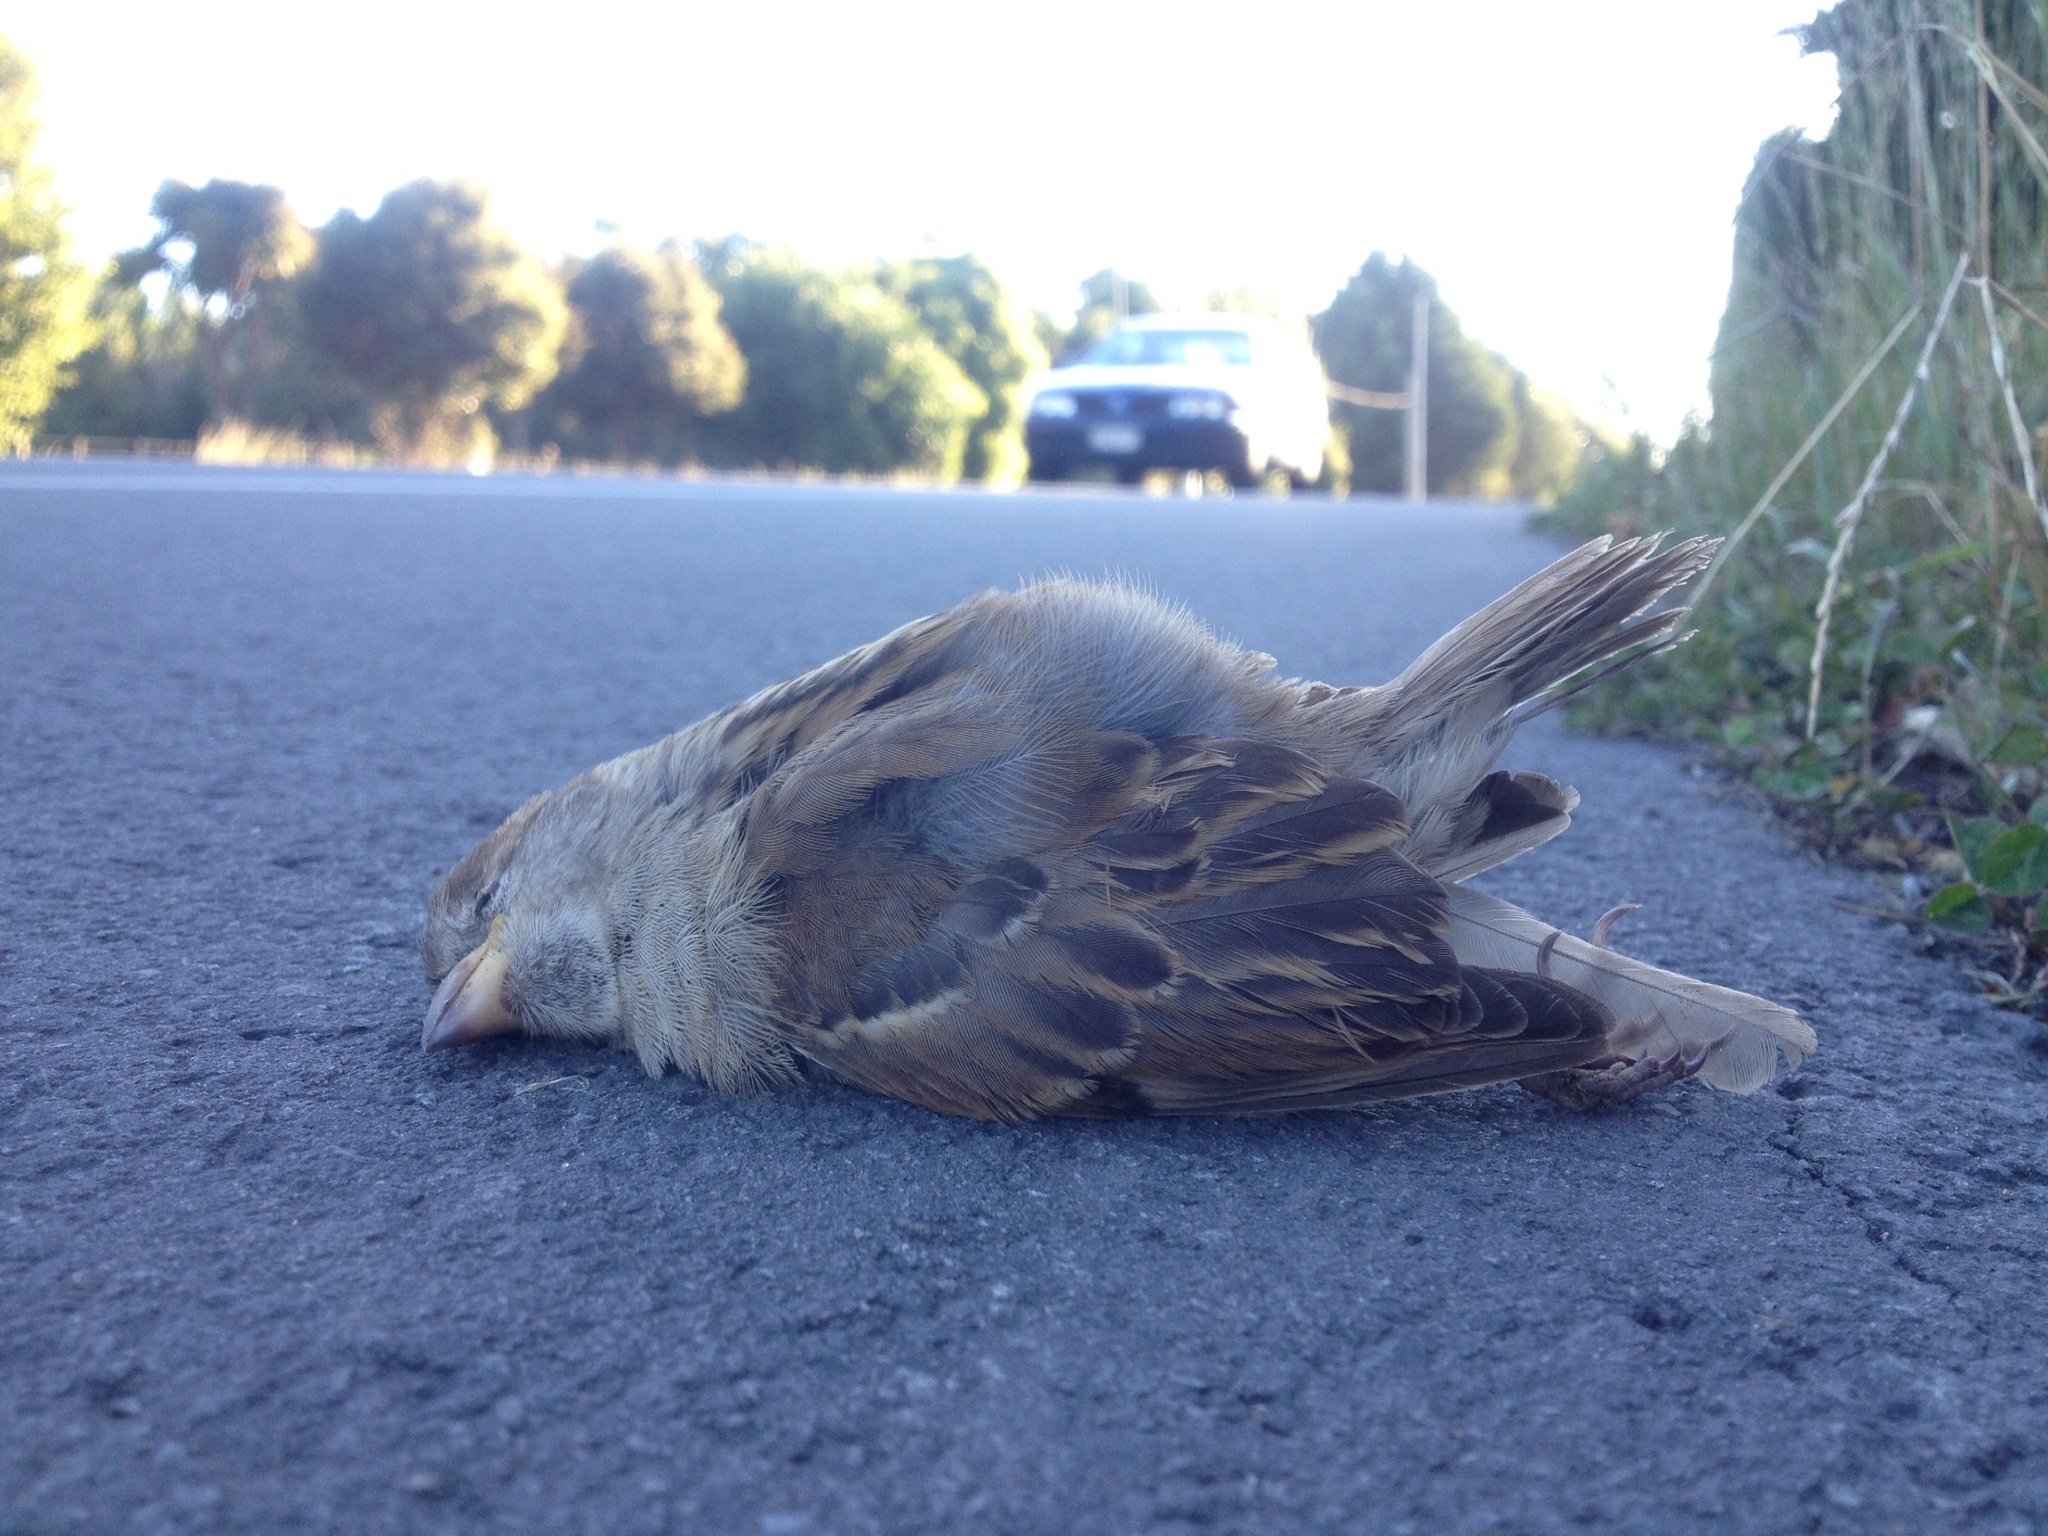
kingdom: Animalia
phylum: Chordata
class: Aves
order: Passeriformes
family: Passeridae
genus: Passer
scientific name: Passer domesticus
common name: House sparrow
